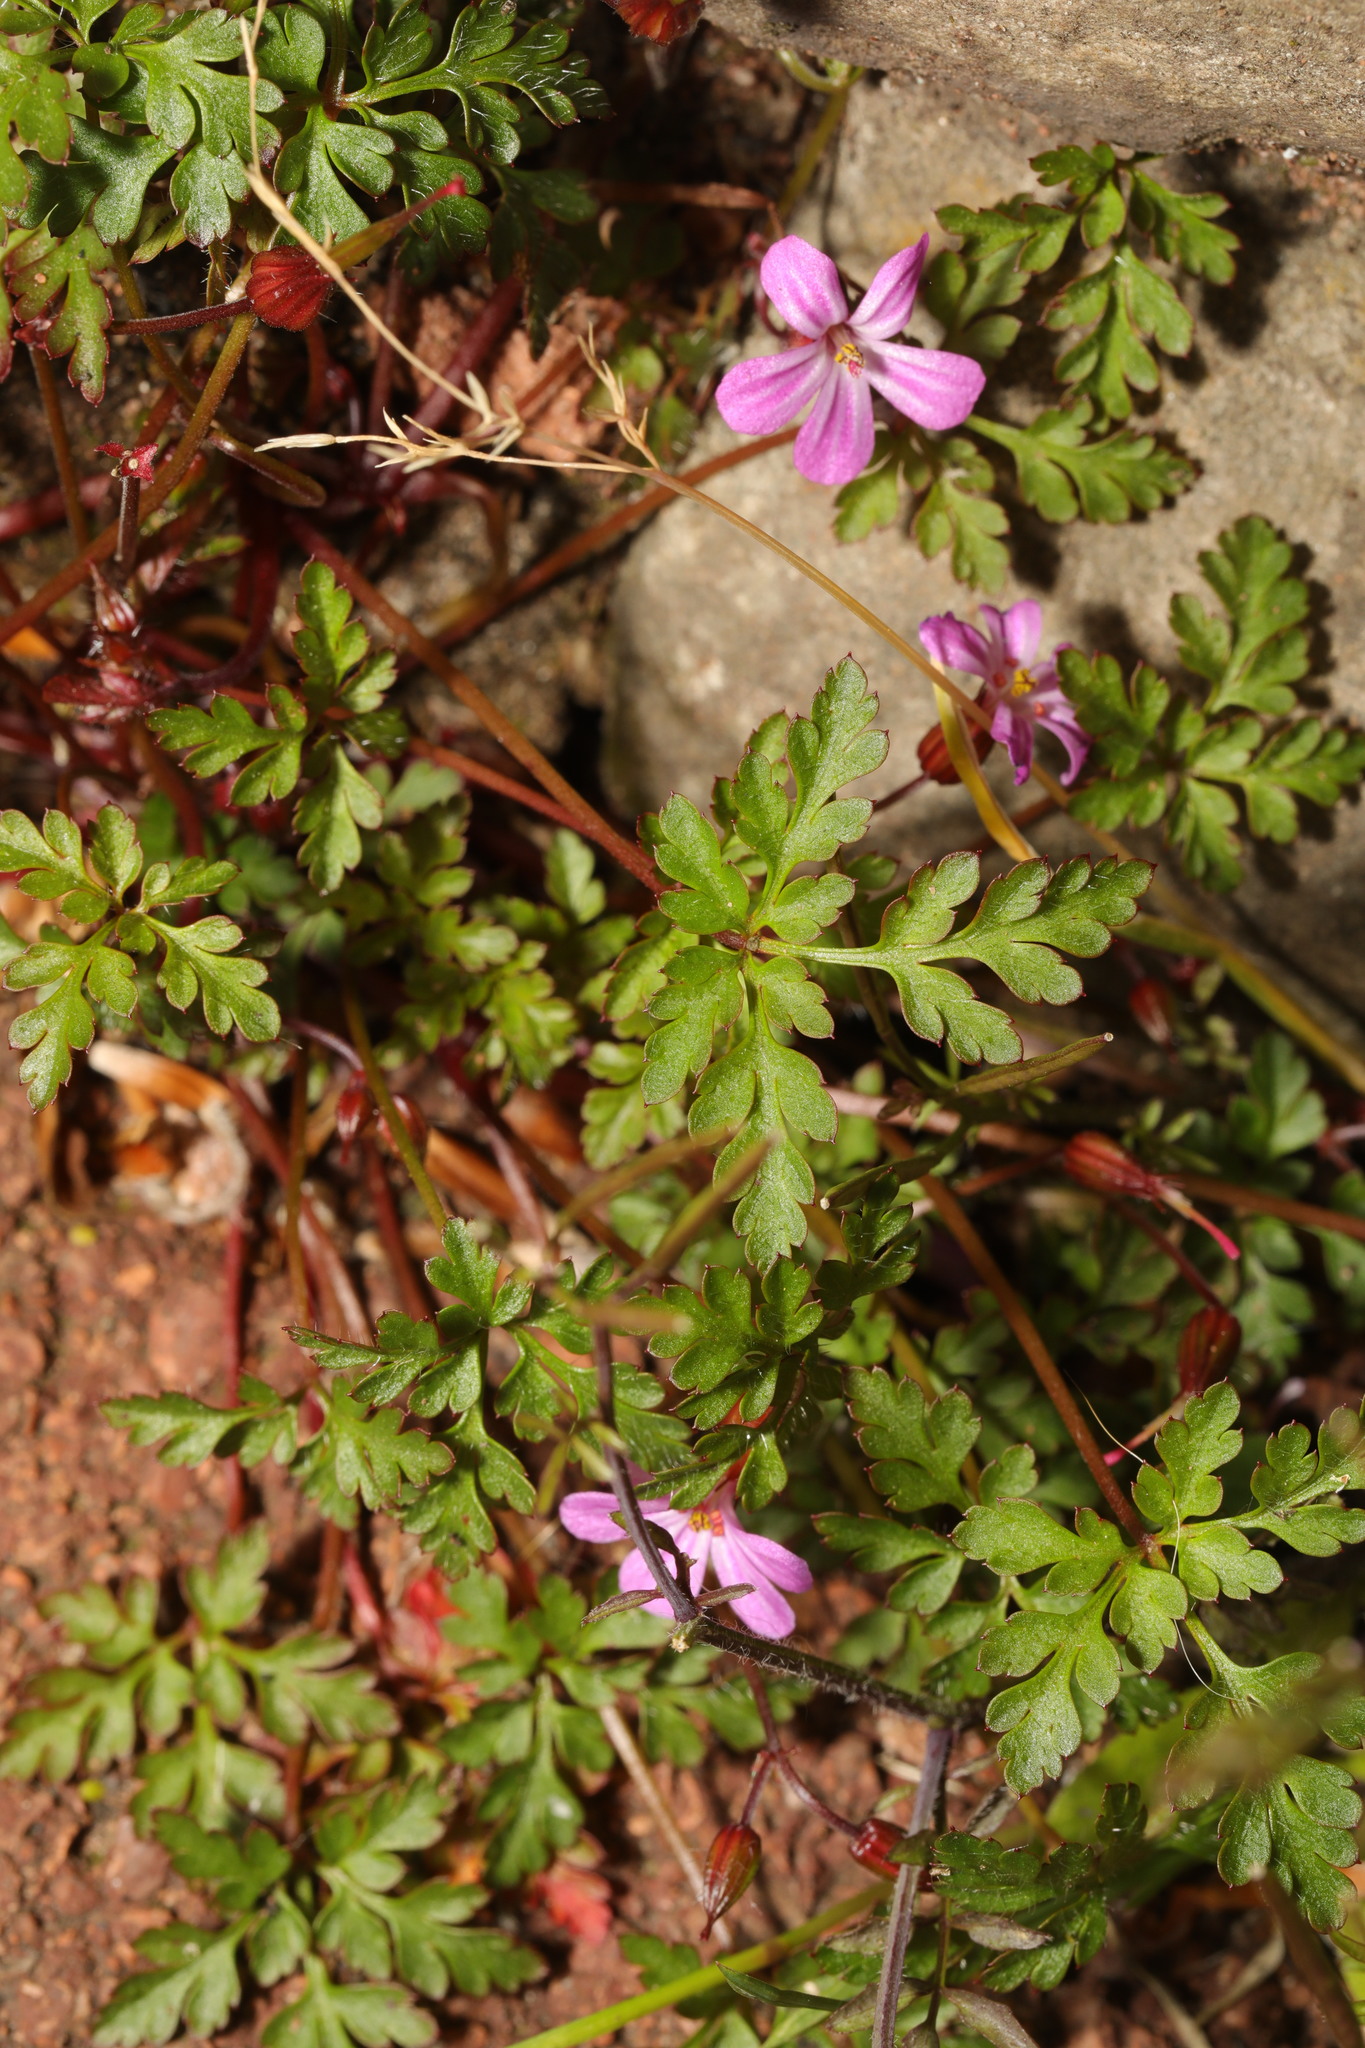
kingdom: Plantae
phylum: Tracheophyta
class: Magnoliopsida
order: Geraniales
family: Geraniaceae
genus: Geranium
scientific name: Geranium robertianum
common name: Herb-robert
